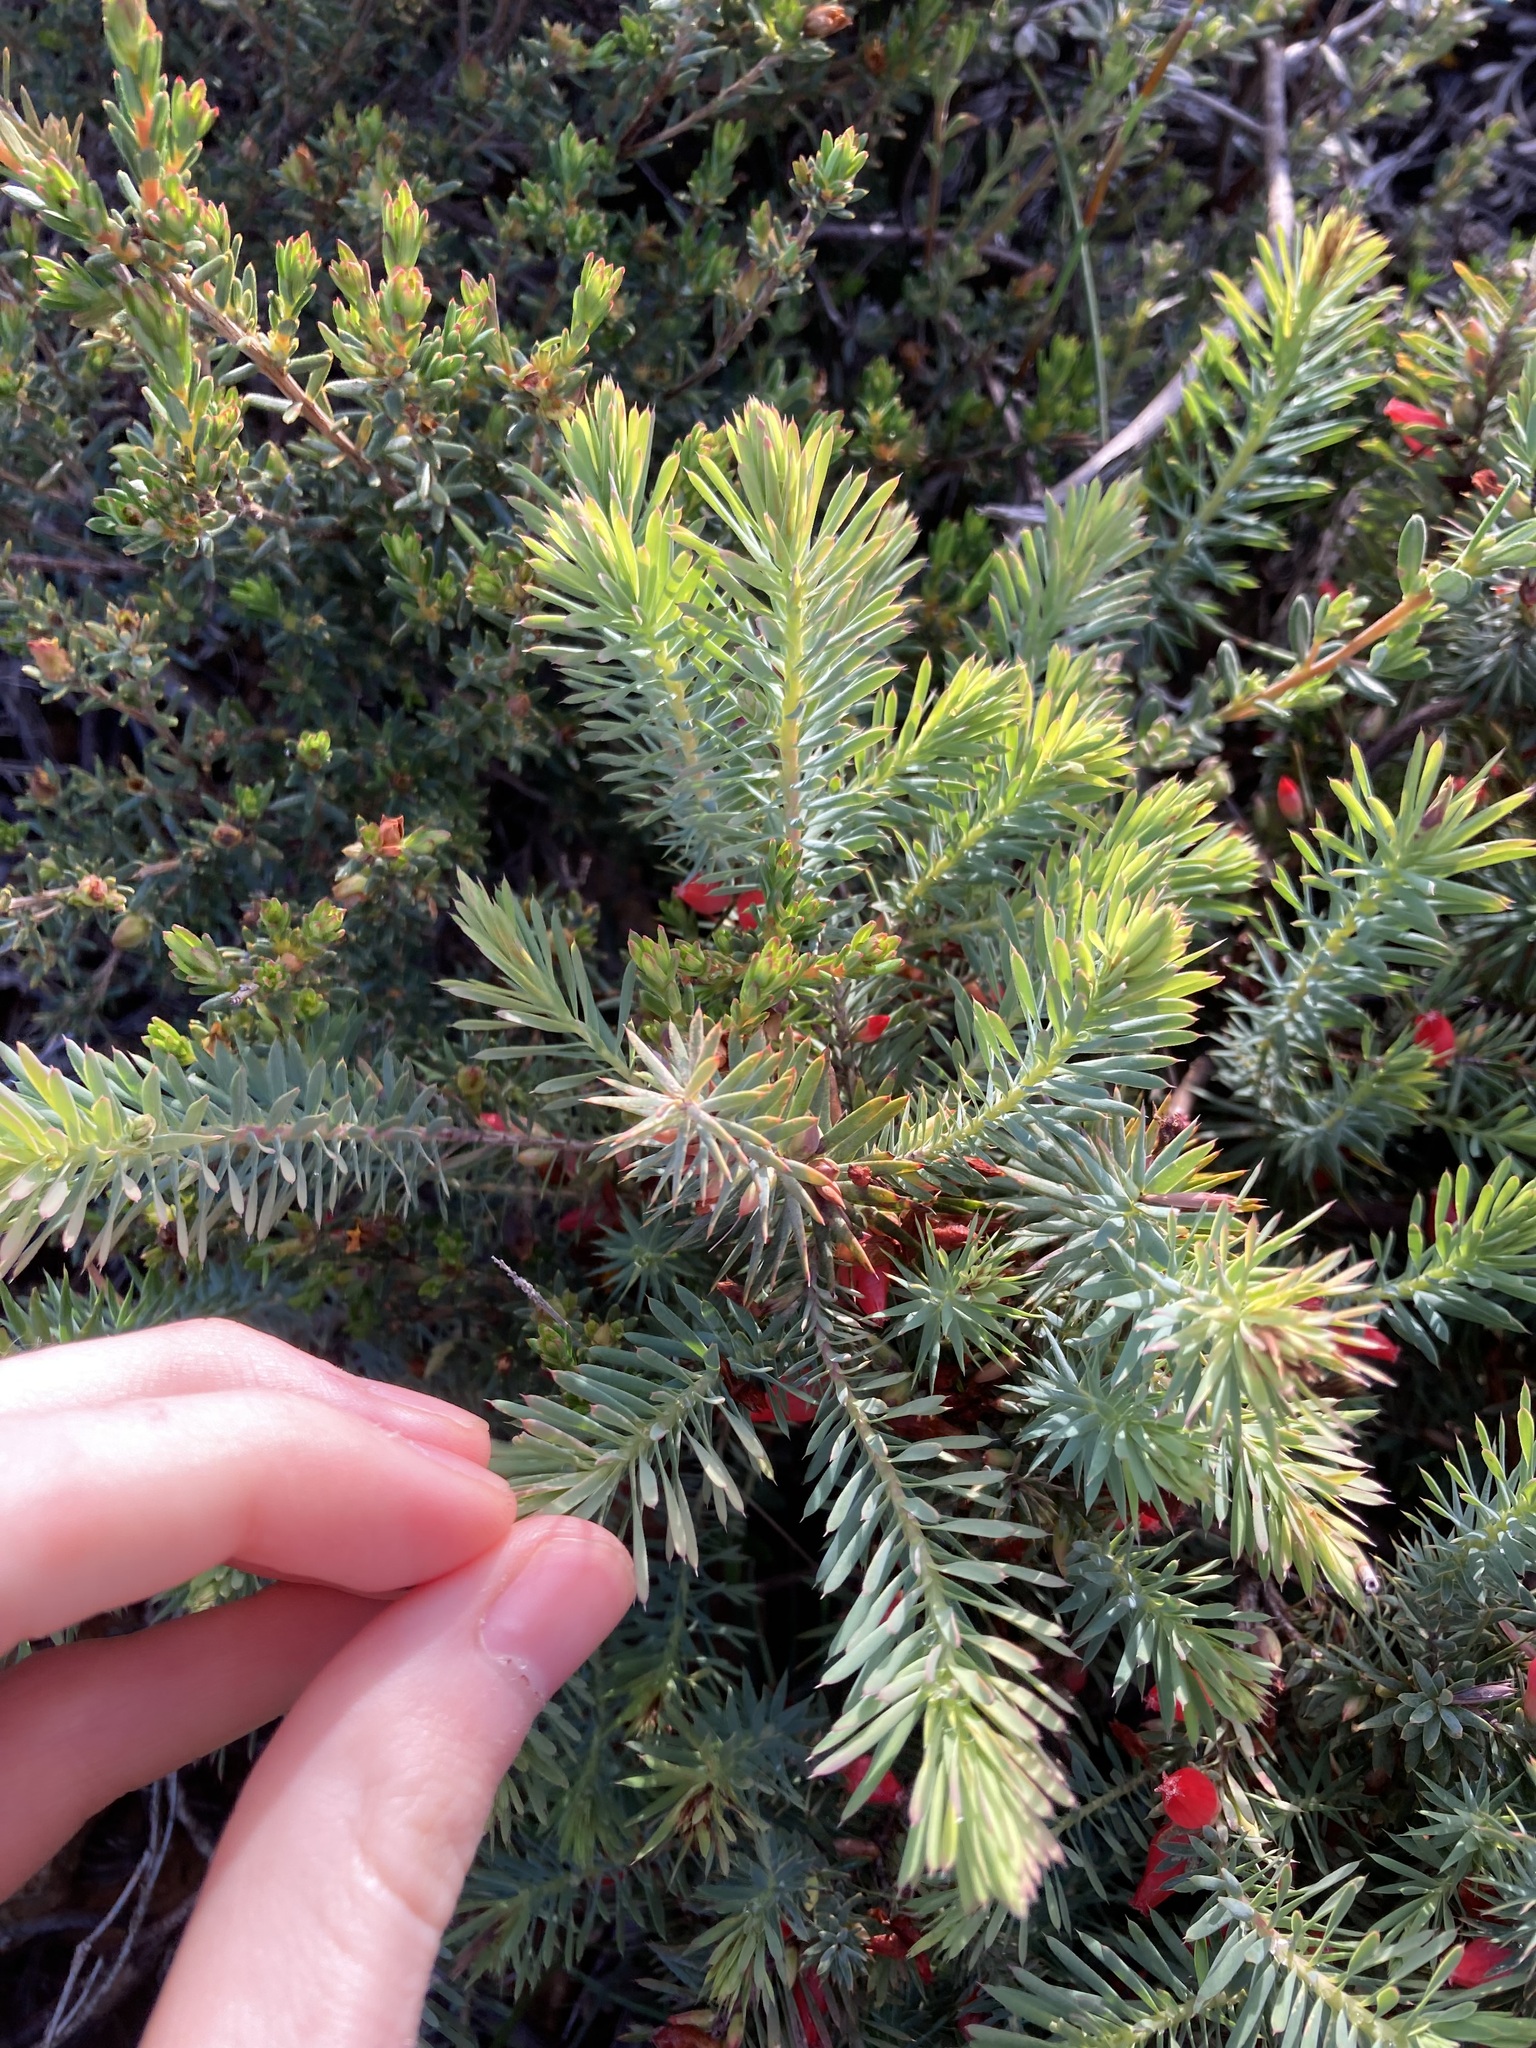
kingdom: Plantae
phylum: Tracheophyta
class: Magnoliopsida
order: Ericales
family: Ericaceae
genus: Styphelia
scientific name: Styphelia tortifolia
